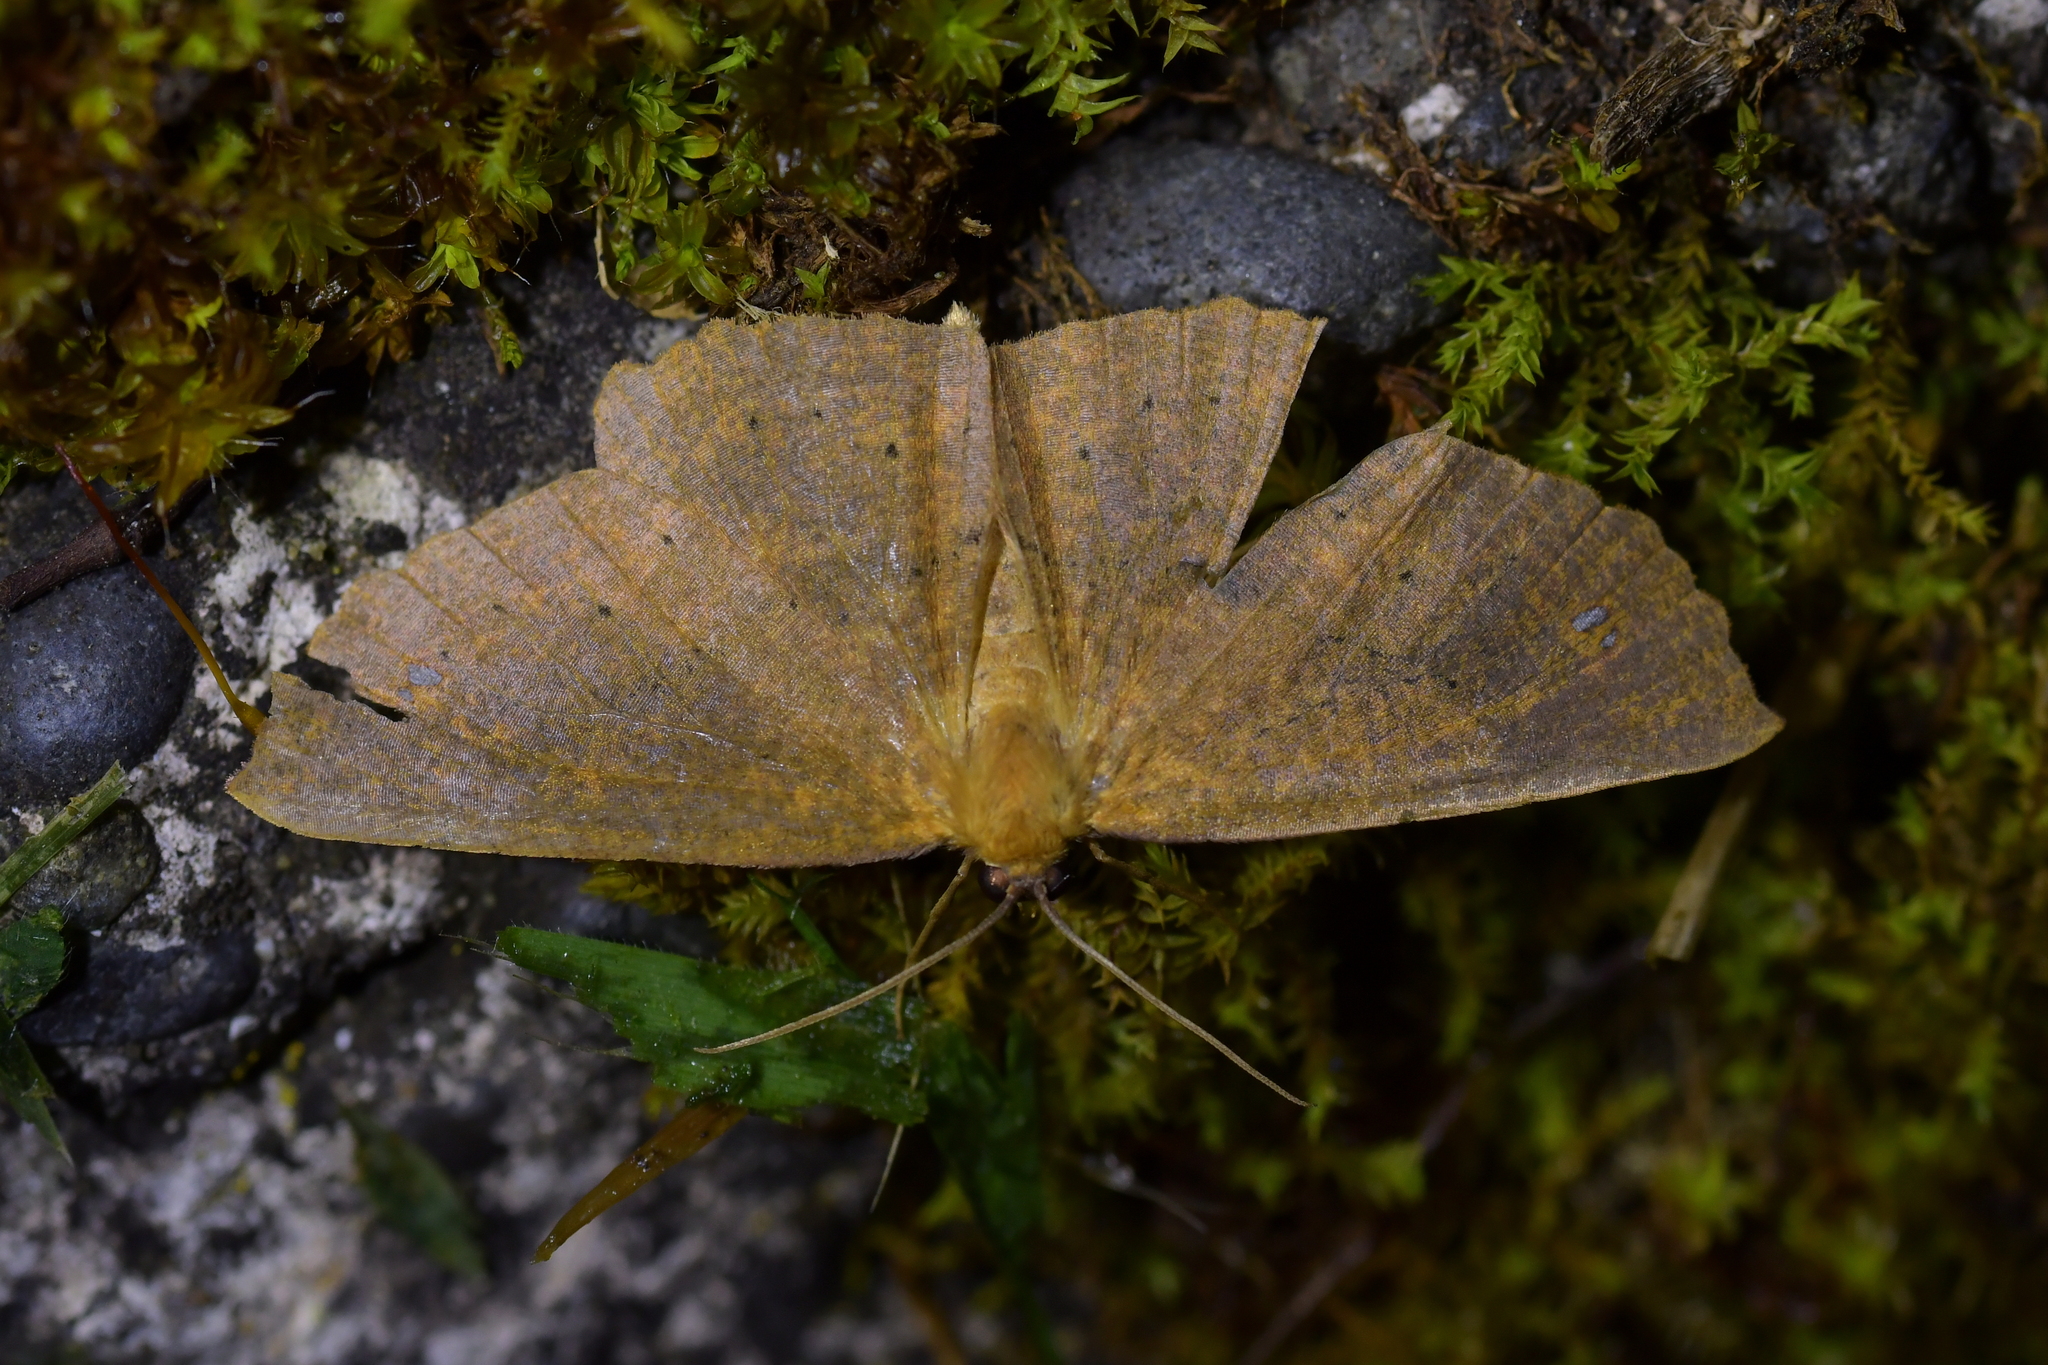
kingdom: Animalia
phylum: Arthropoda
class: Insecta
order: Lepidoptera
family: Geometridae
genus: Xyridacma
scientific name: Xyridacma ustaria
